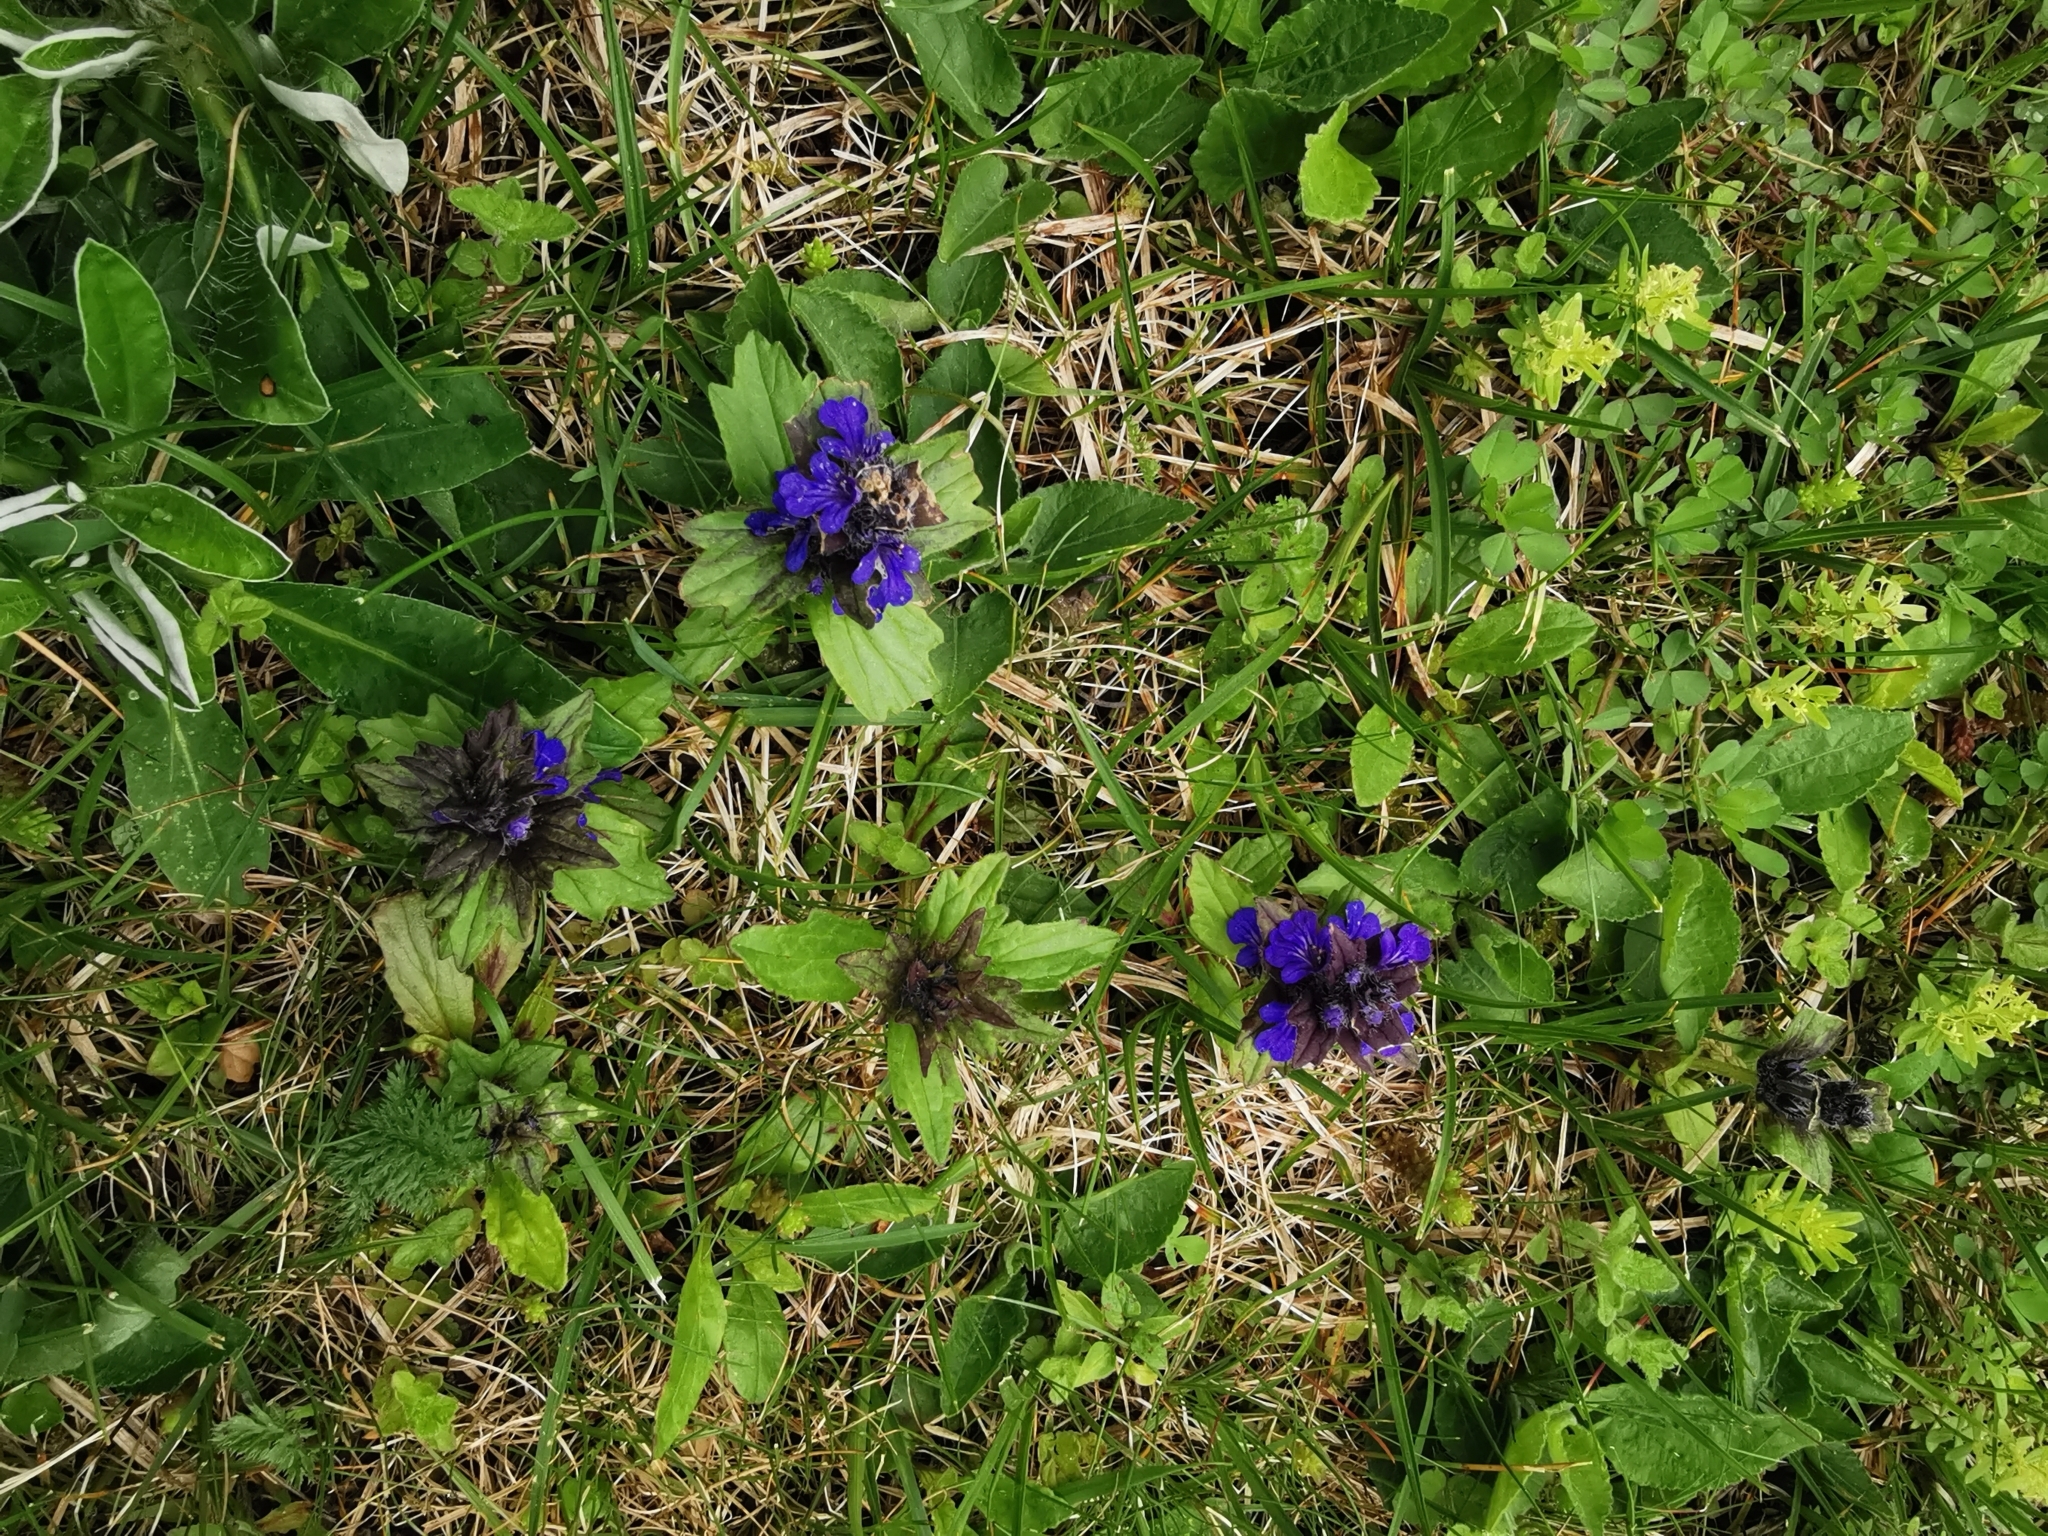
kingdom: Plantae
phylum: Tracheophyta
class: Magnoliopsida
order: Lamiales
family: Lamiaceae
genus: Ajuga
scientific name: Ajuga genevensis
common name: Blue bugle
